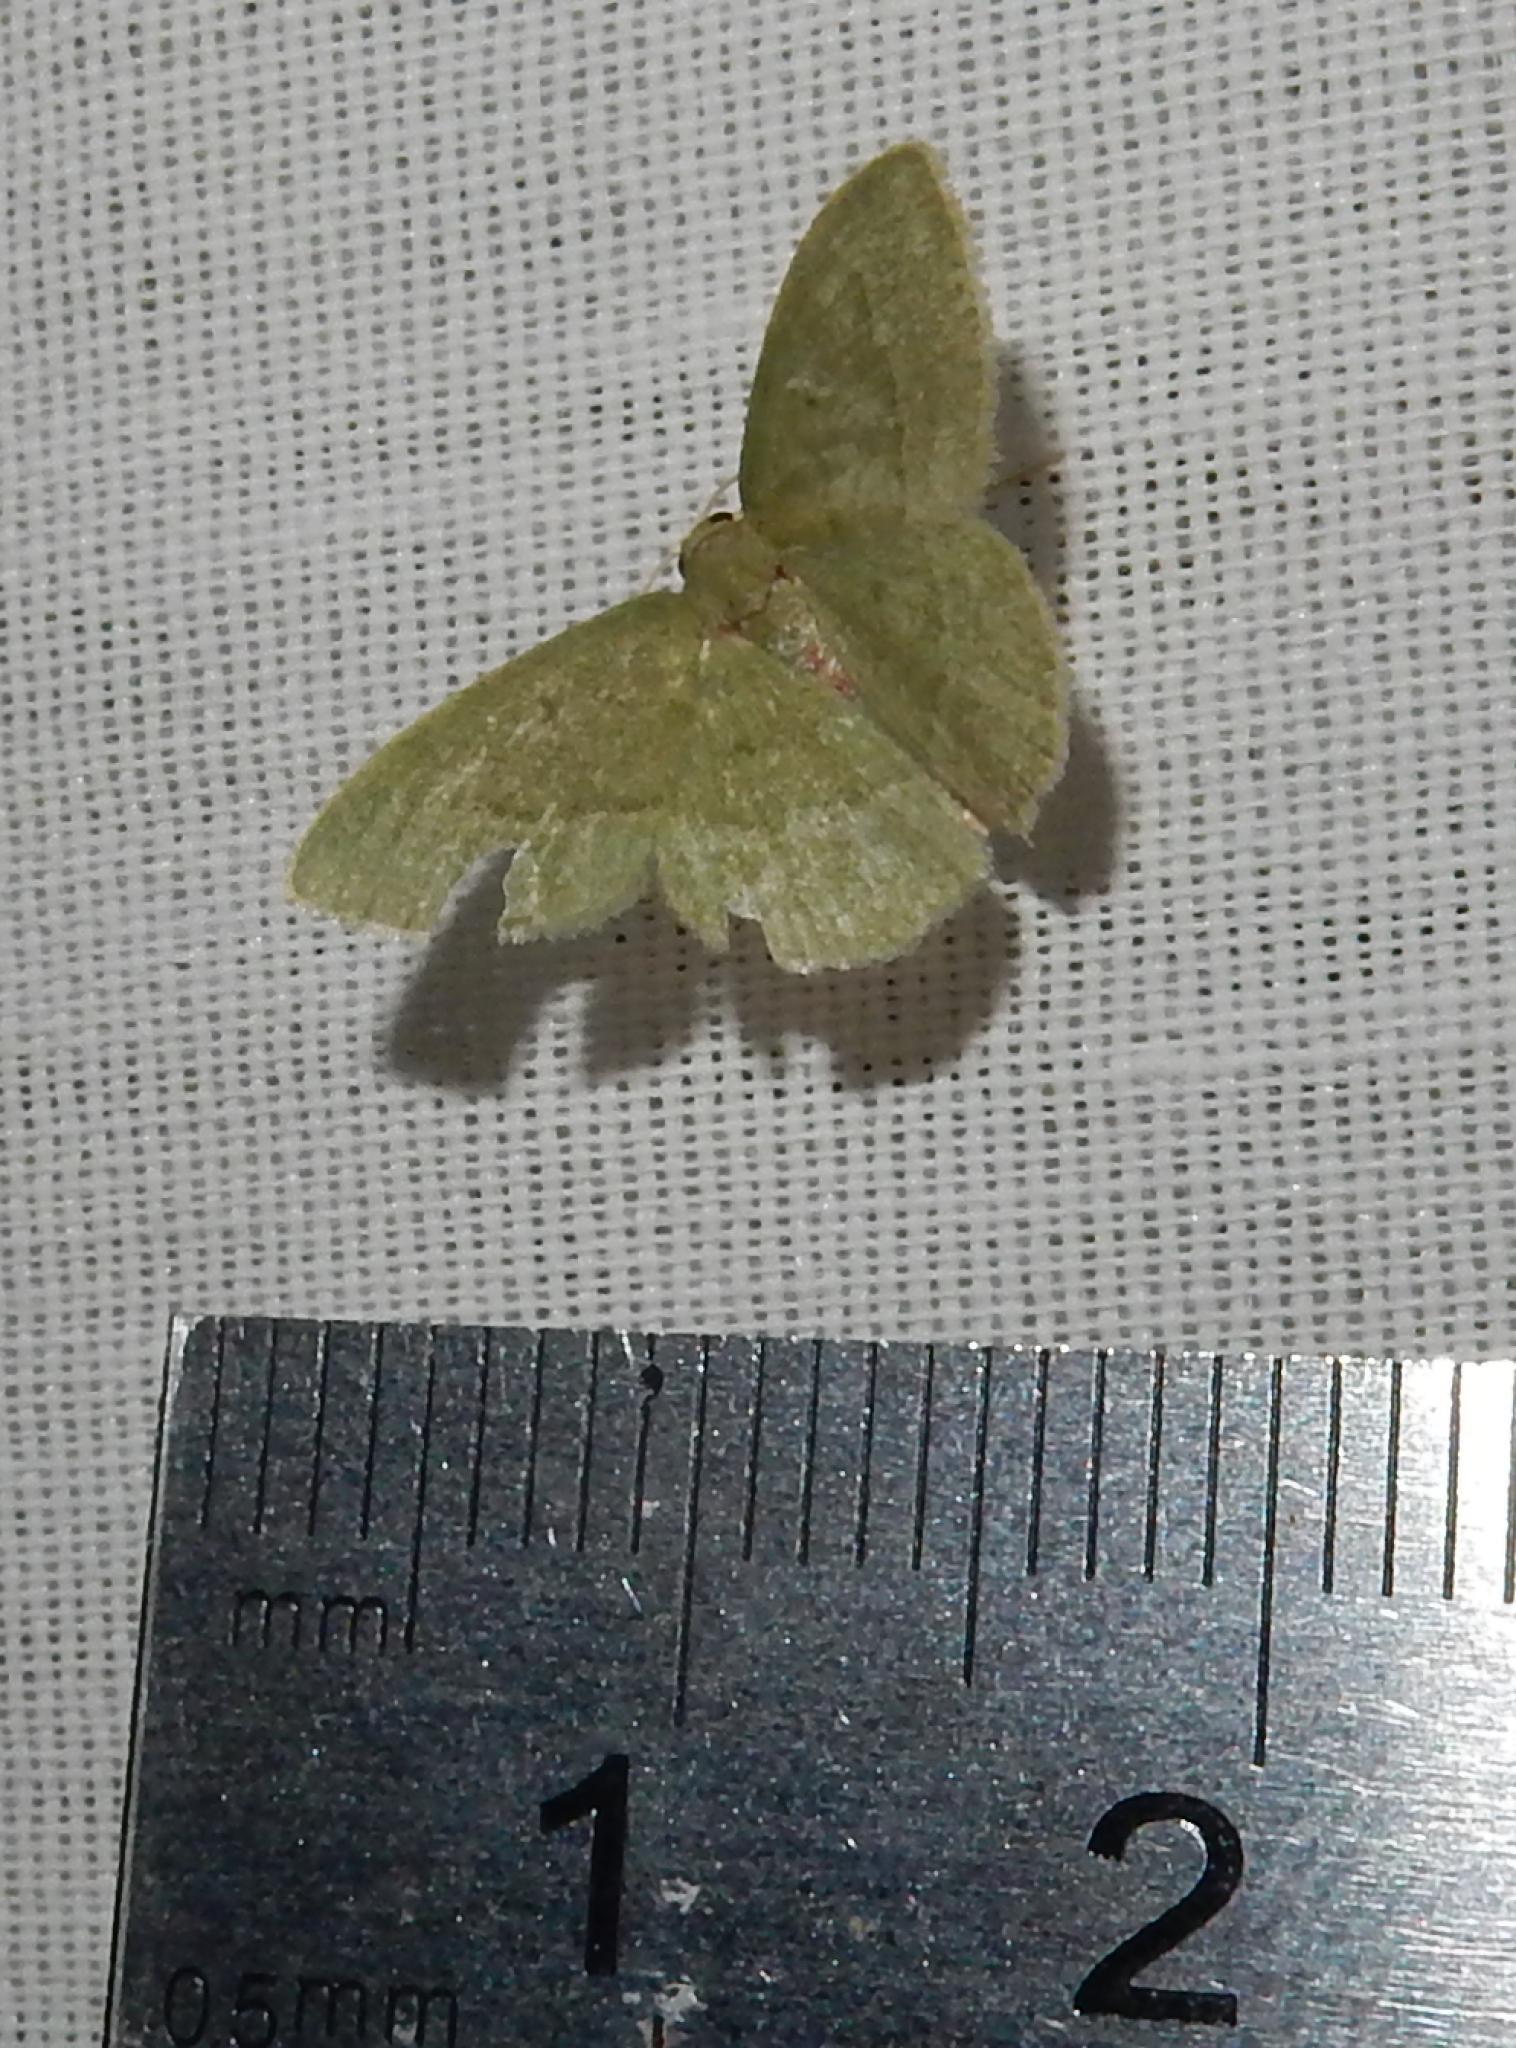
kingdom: Animalia
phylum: Arthropoda
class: Insecta
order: Lepidoptera
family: Geometridae
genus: Chlorissa
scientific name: Chlorissa attenuata
